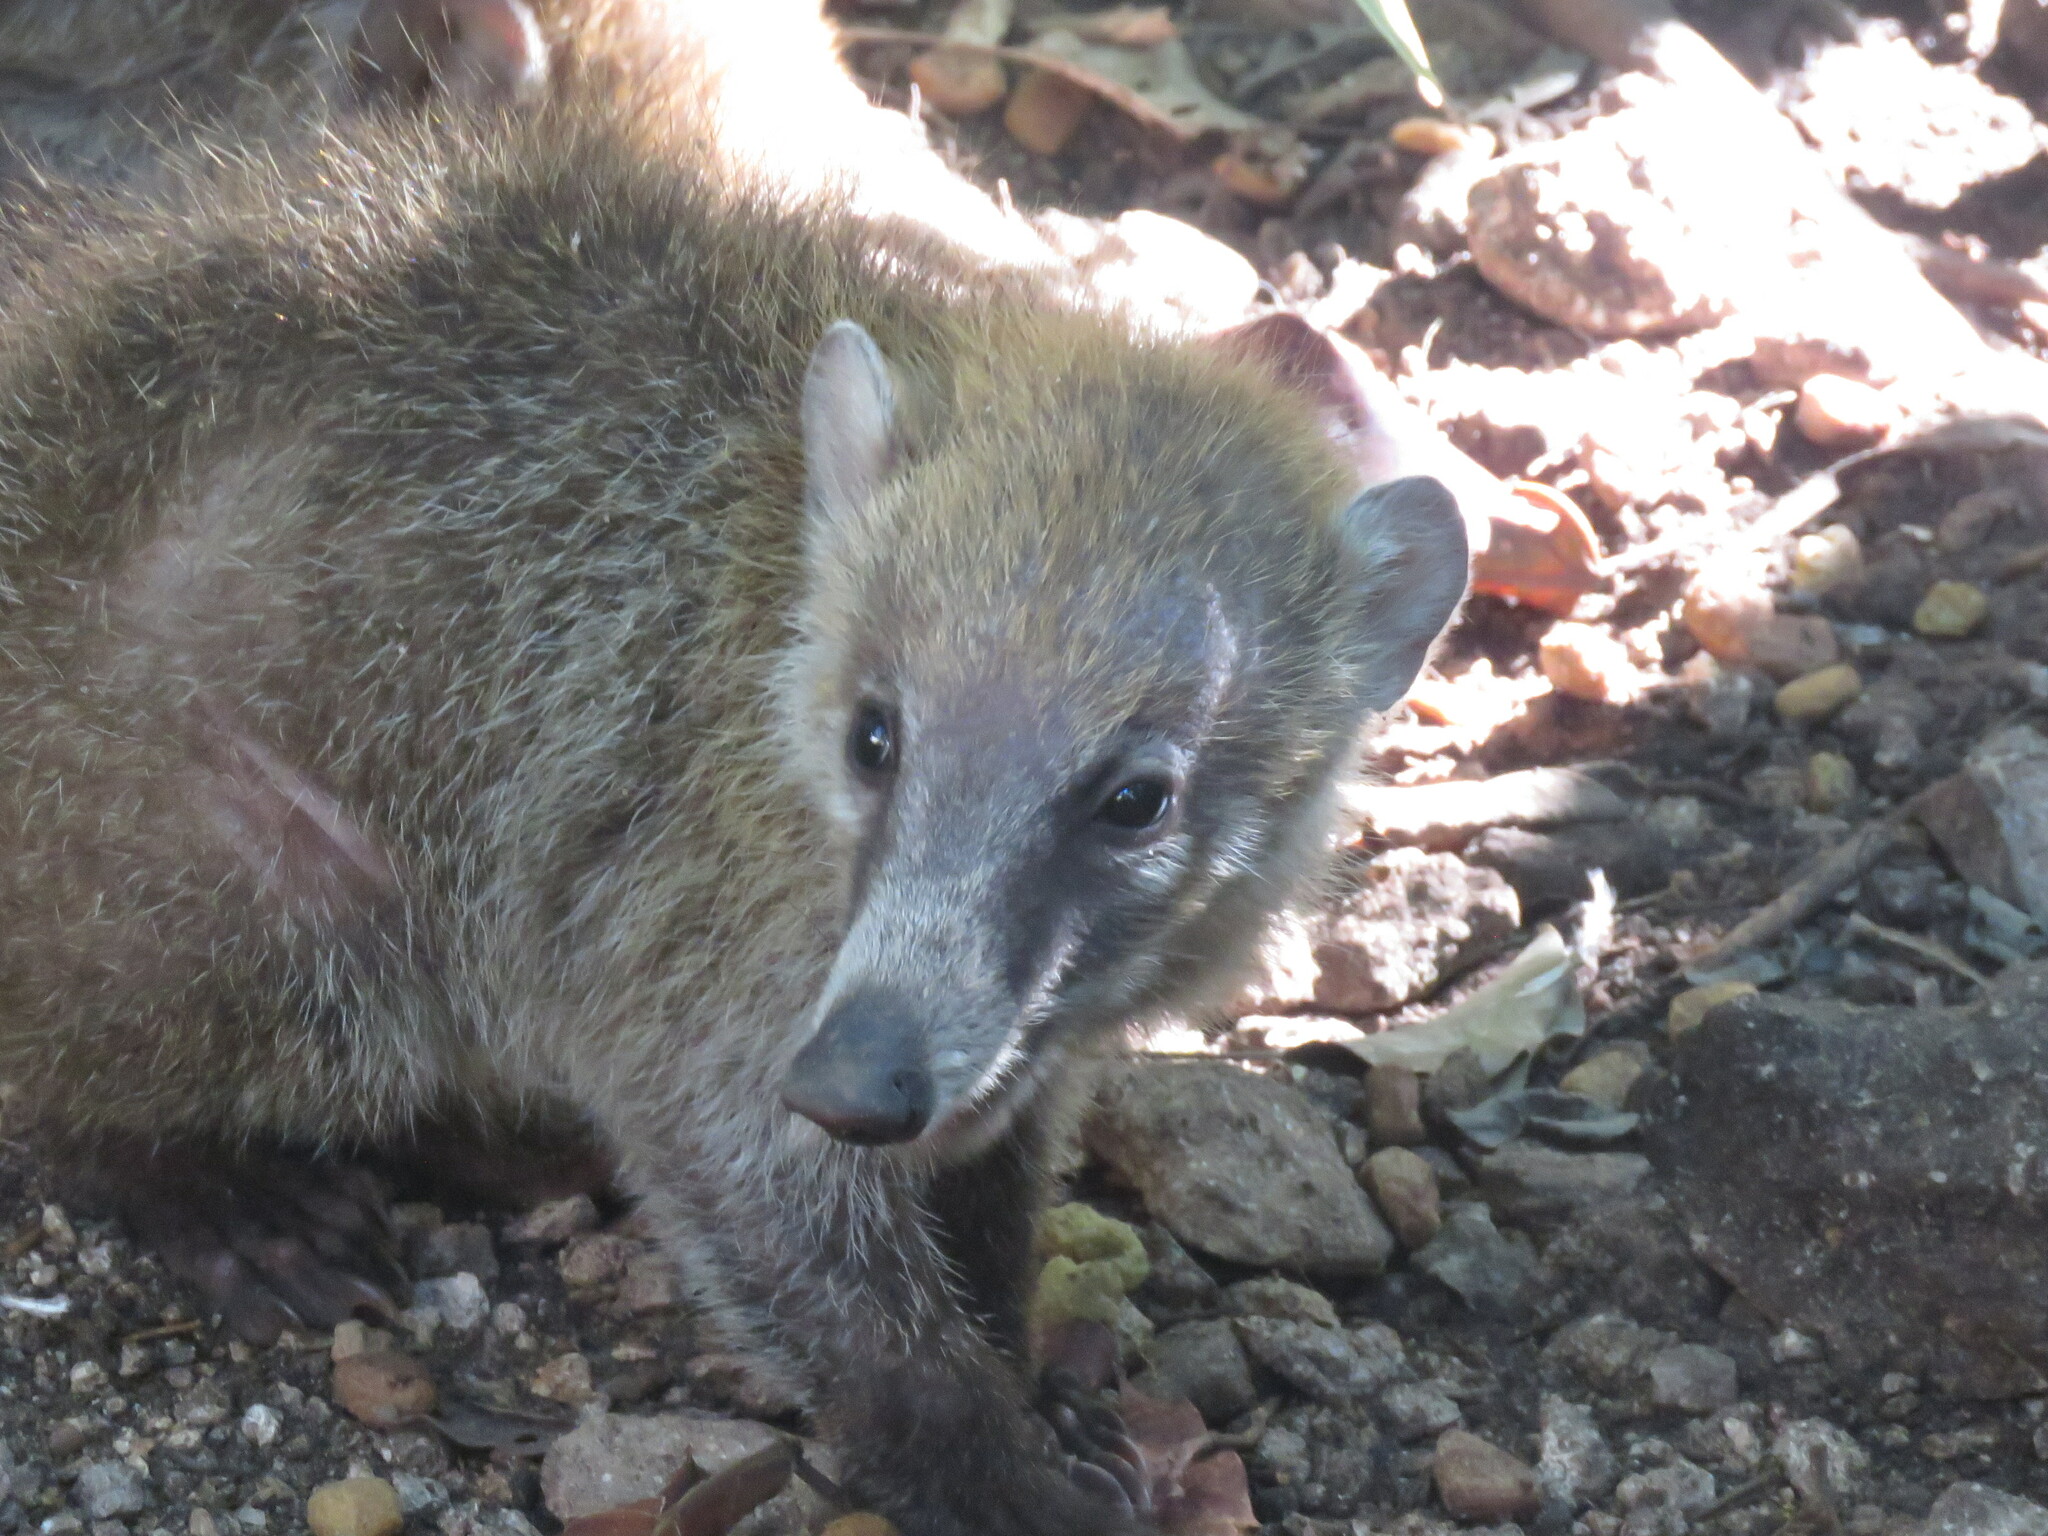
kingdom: Animalia
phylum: Chordata
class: Mammalia
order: Carnivora
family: Procyonidae
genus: Nasua
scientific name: Nasua narica
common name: White-nosed coati
